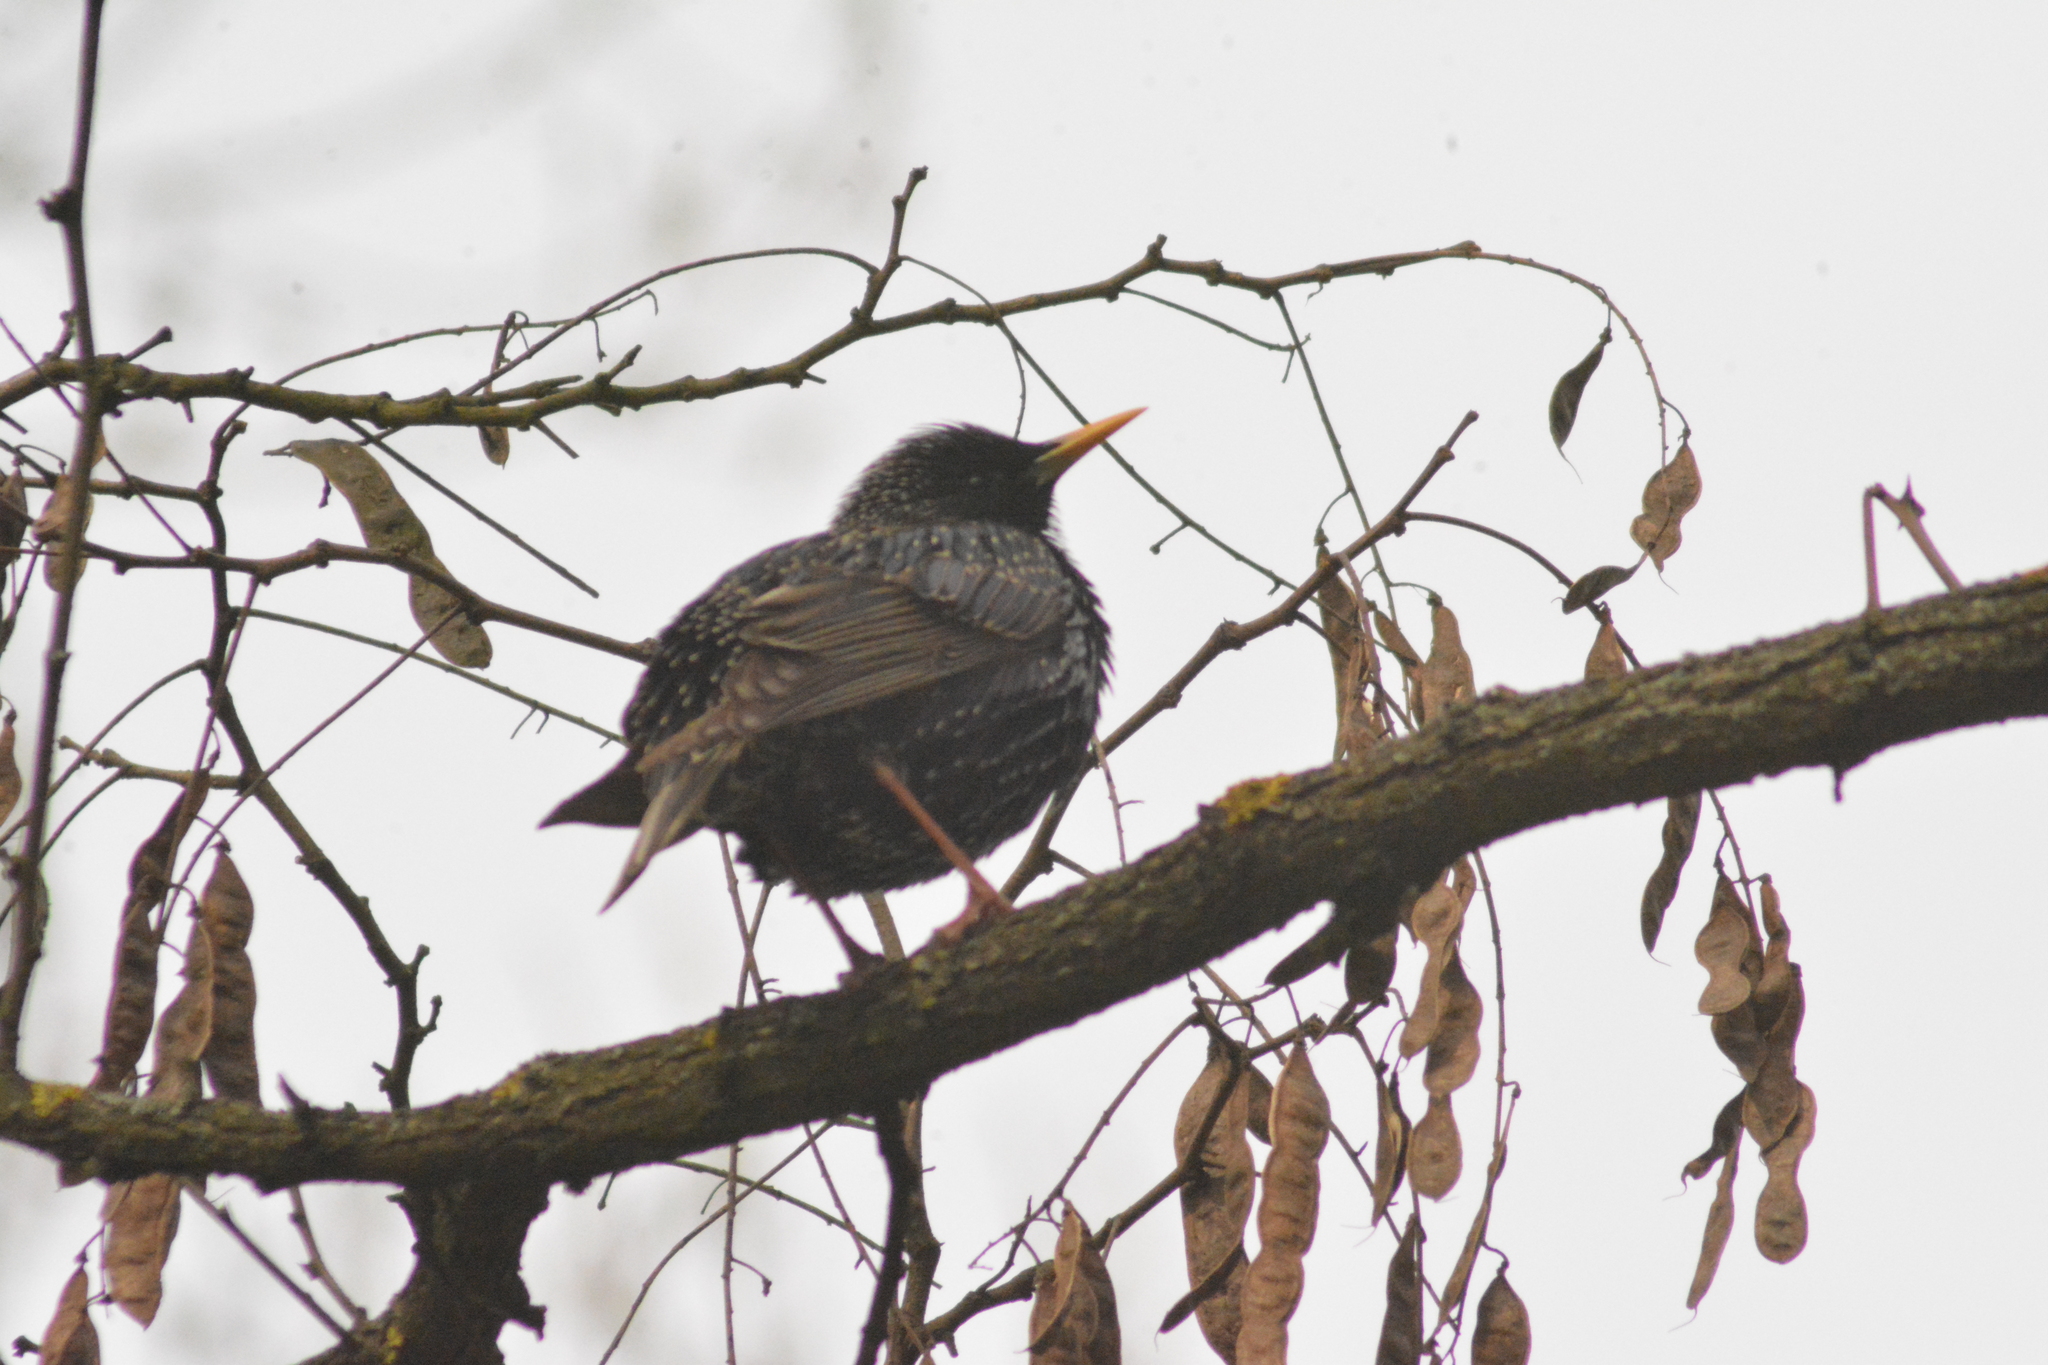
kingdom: Animalia
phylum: Chordata
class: Aves
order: Passeriformes
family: Sturnidae
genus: Sturnus
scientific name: Sturnus vulgaris
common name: Common starling
